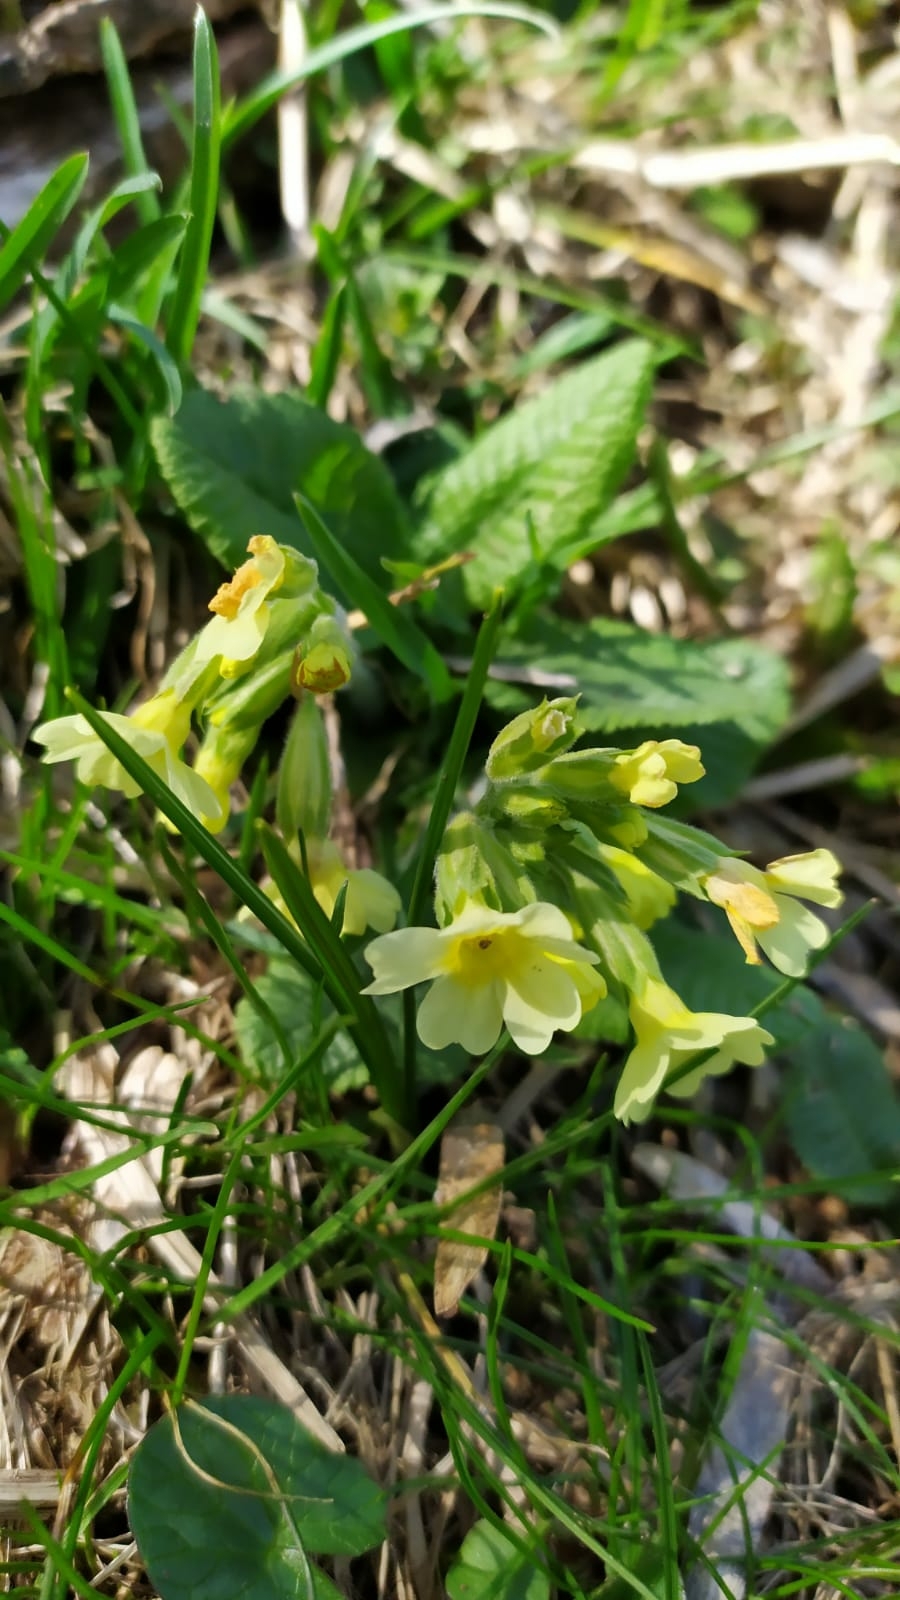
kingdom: Plantae
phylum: Tracheophyta
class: Magnoliopsida
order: Ericales
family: Primulaceae
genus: Primula
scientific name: Primula vulgaris
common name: Primrose
